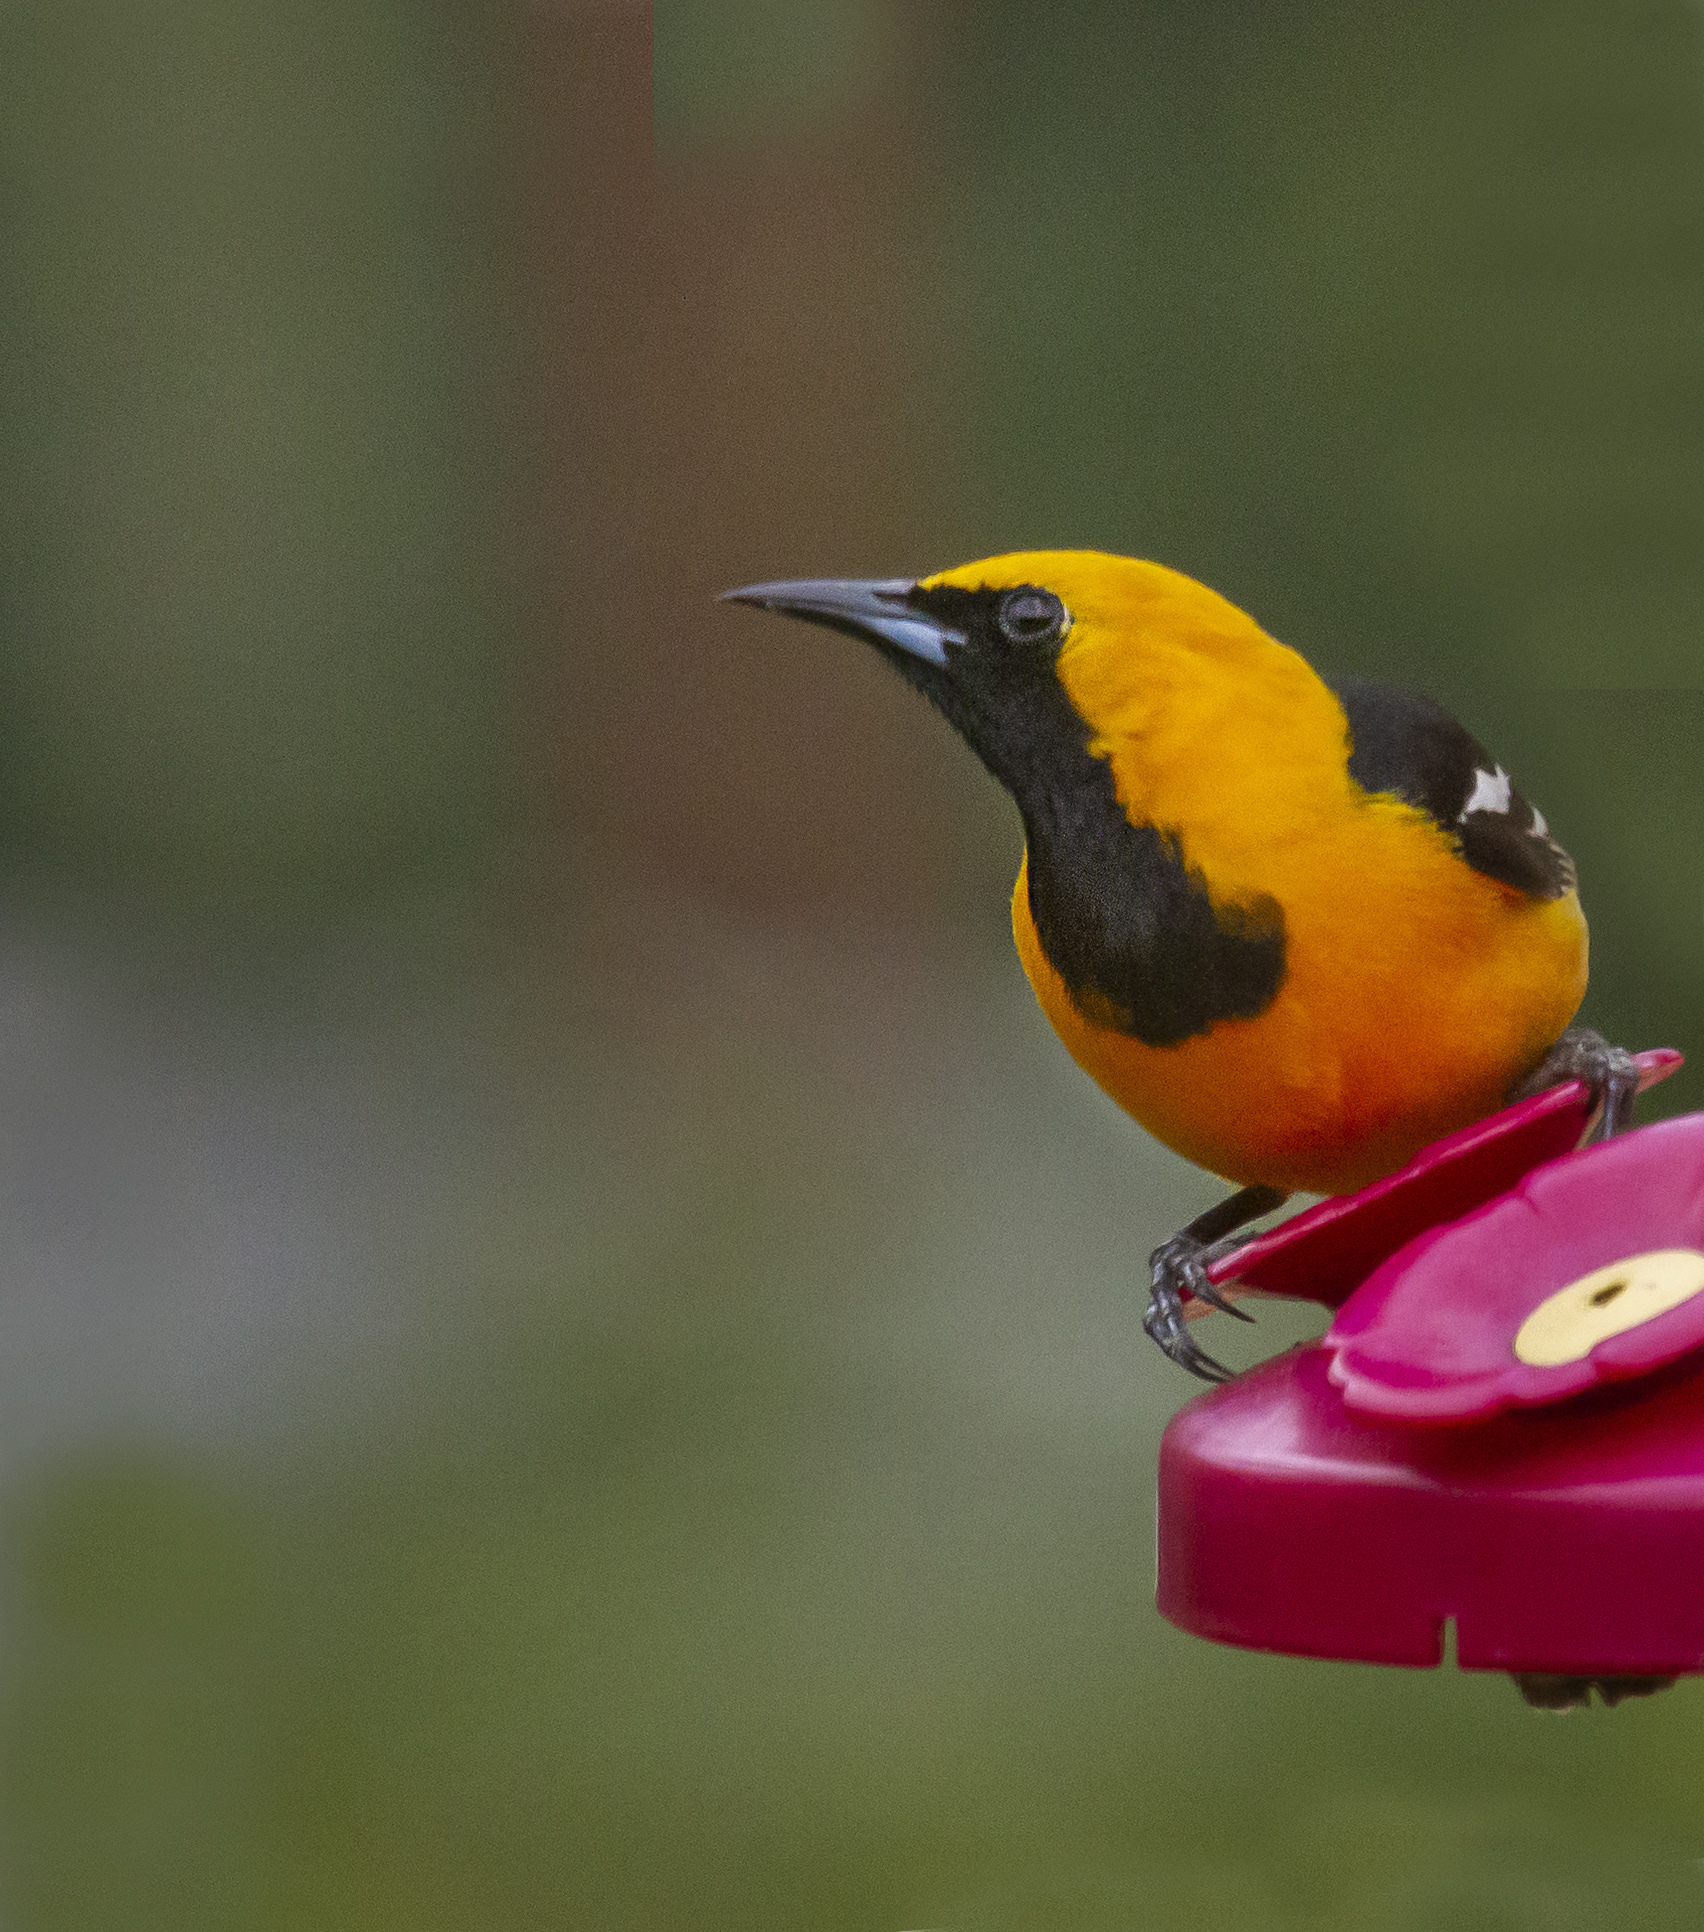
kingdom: Animalia
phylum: Chordata
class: Aves
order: Passeriformes
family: Icteridae
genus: Icterus
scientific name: Icterus cucullatus
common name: Hooded oriole
